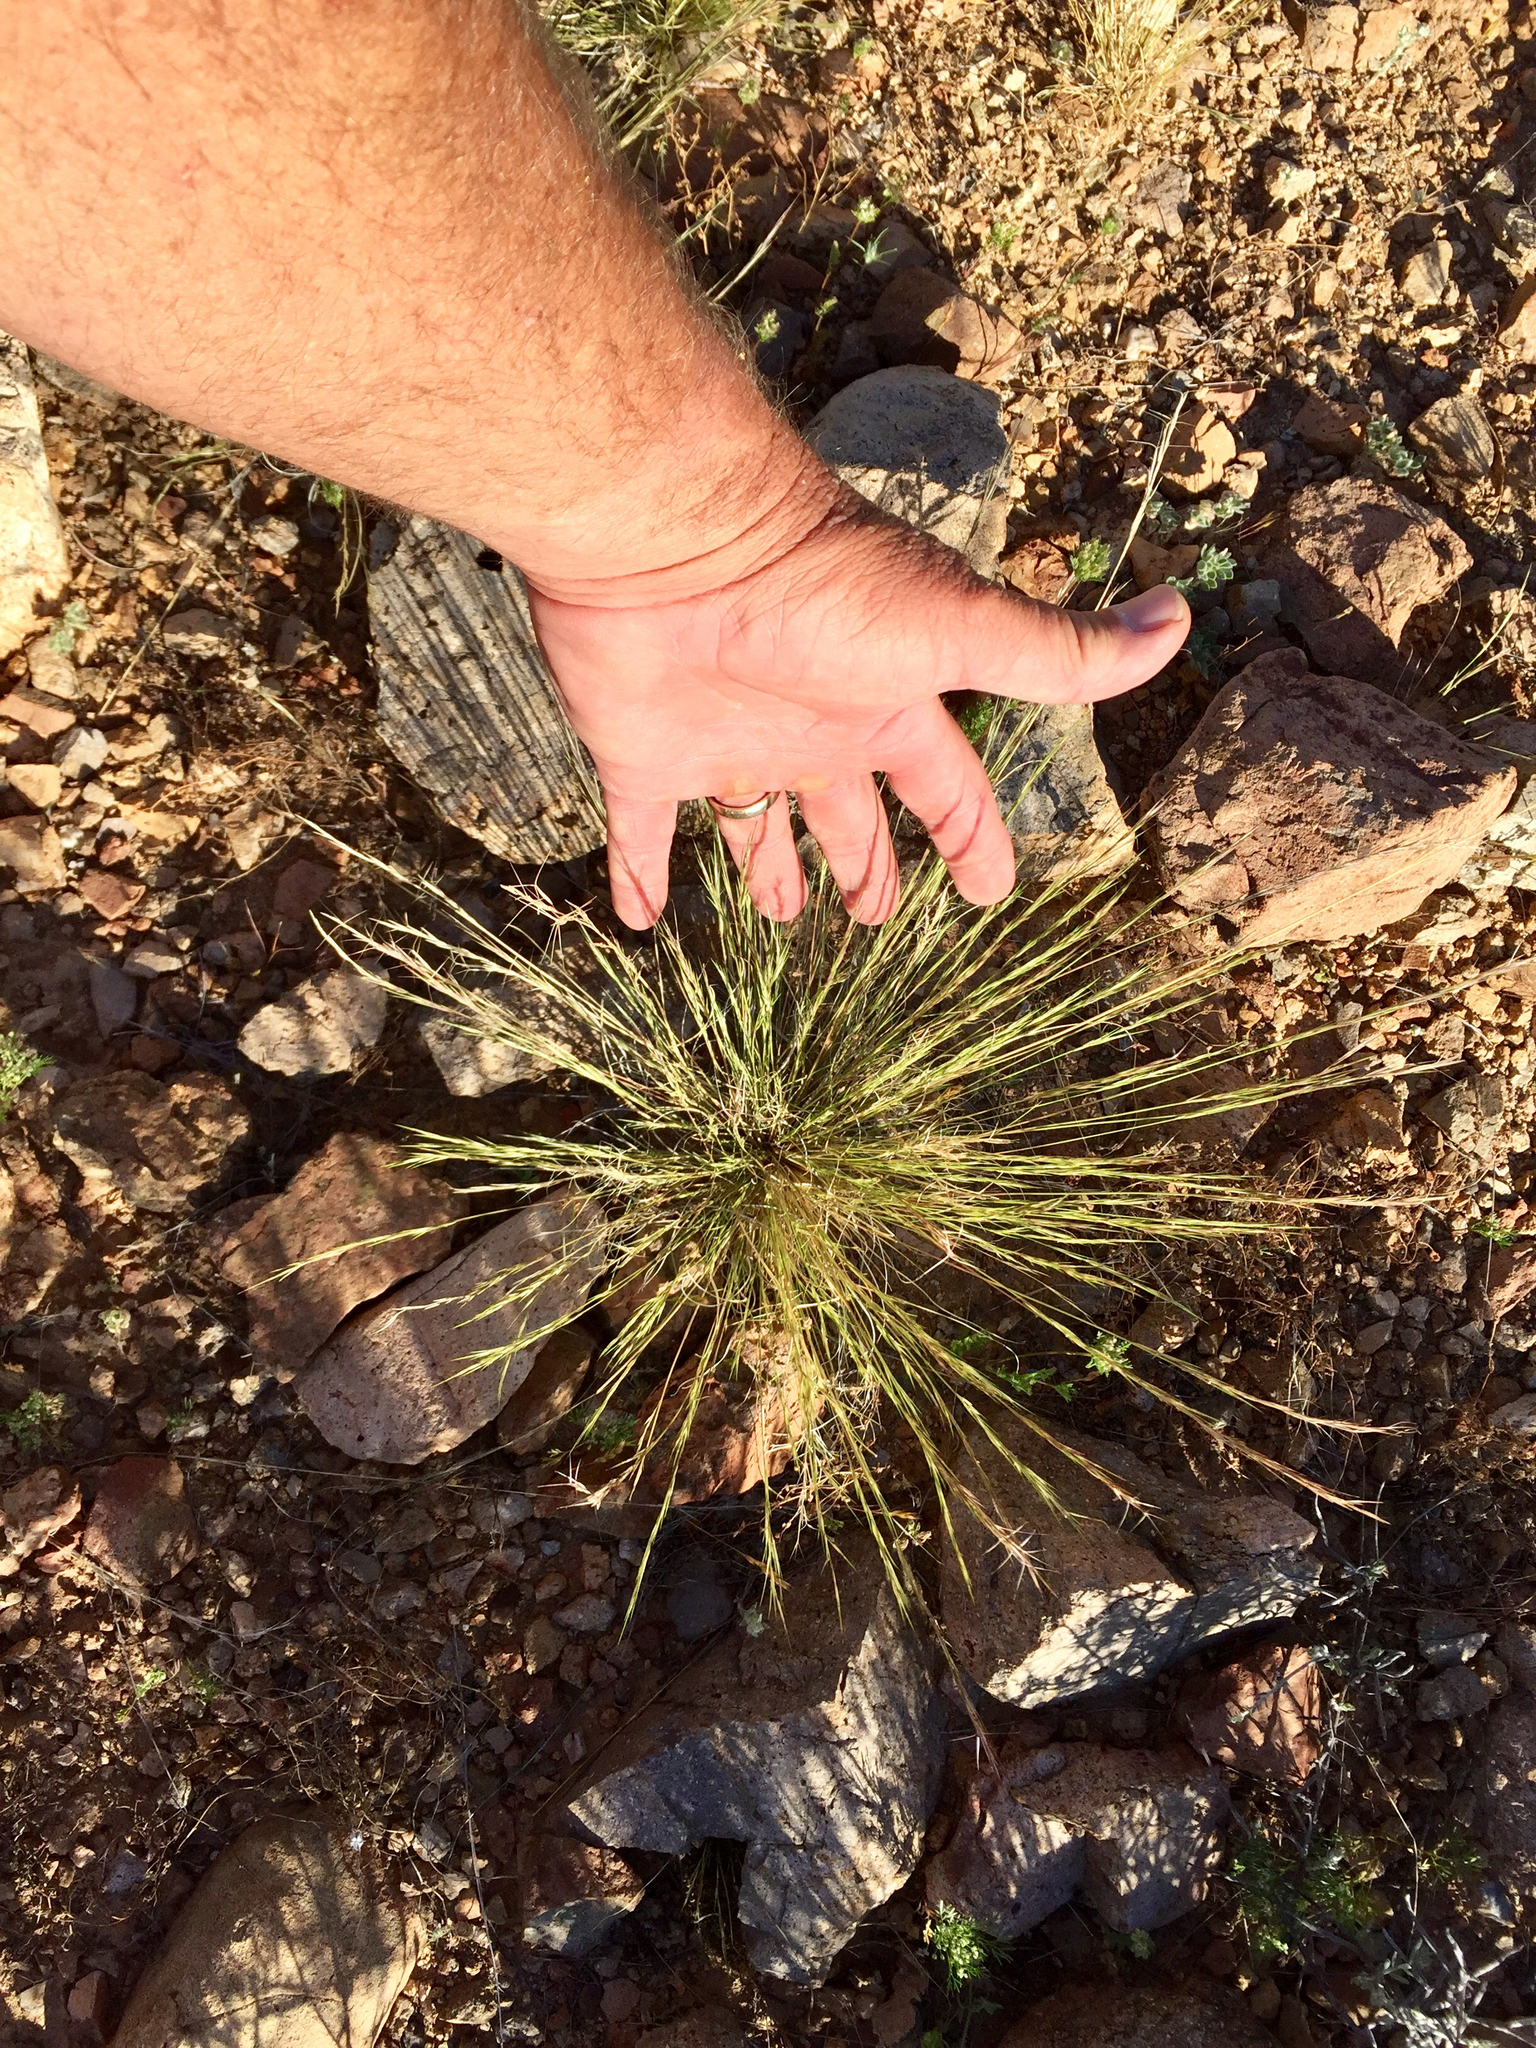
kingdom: Plantae
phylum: Tracheophyta
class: Liliopsida
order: Poales
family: Poaceae
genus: Aristida
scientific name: Aristida adscensionis
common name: Sixweeks threeawn
